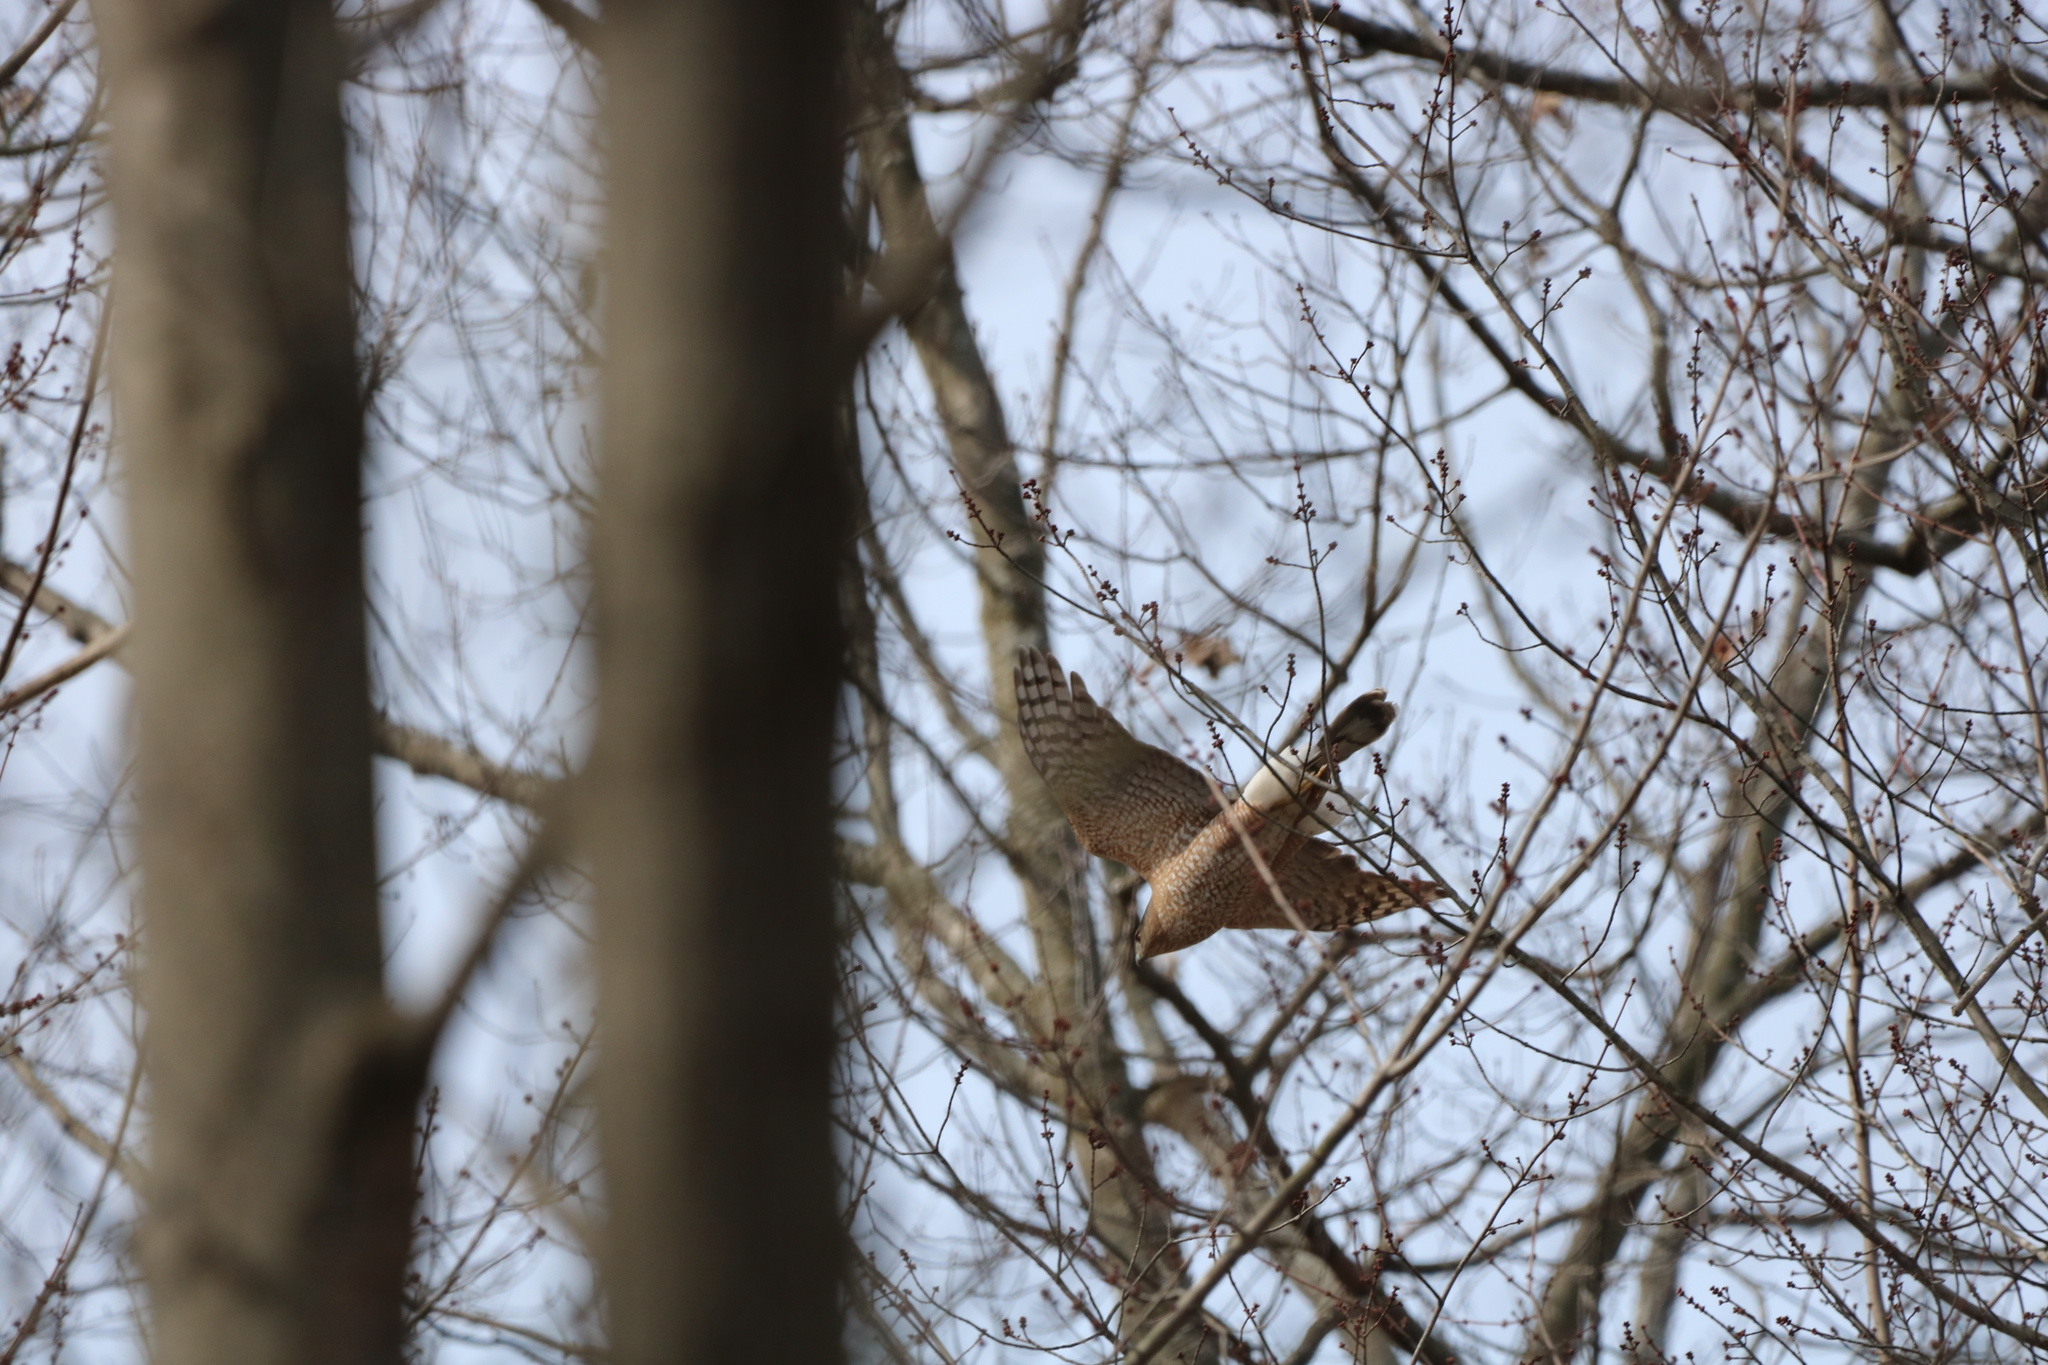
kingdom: Animalia
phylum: Chordata
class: Aves
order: Accipitriformes
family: Accipitridae
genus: Accipiter
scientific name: Accipiter cooperii
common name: Cooper's hawk
